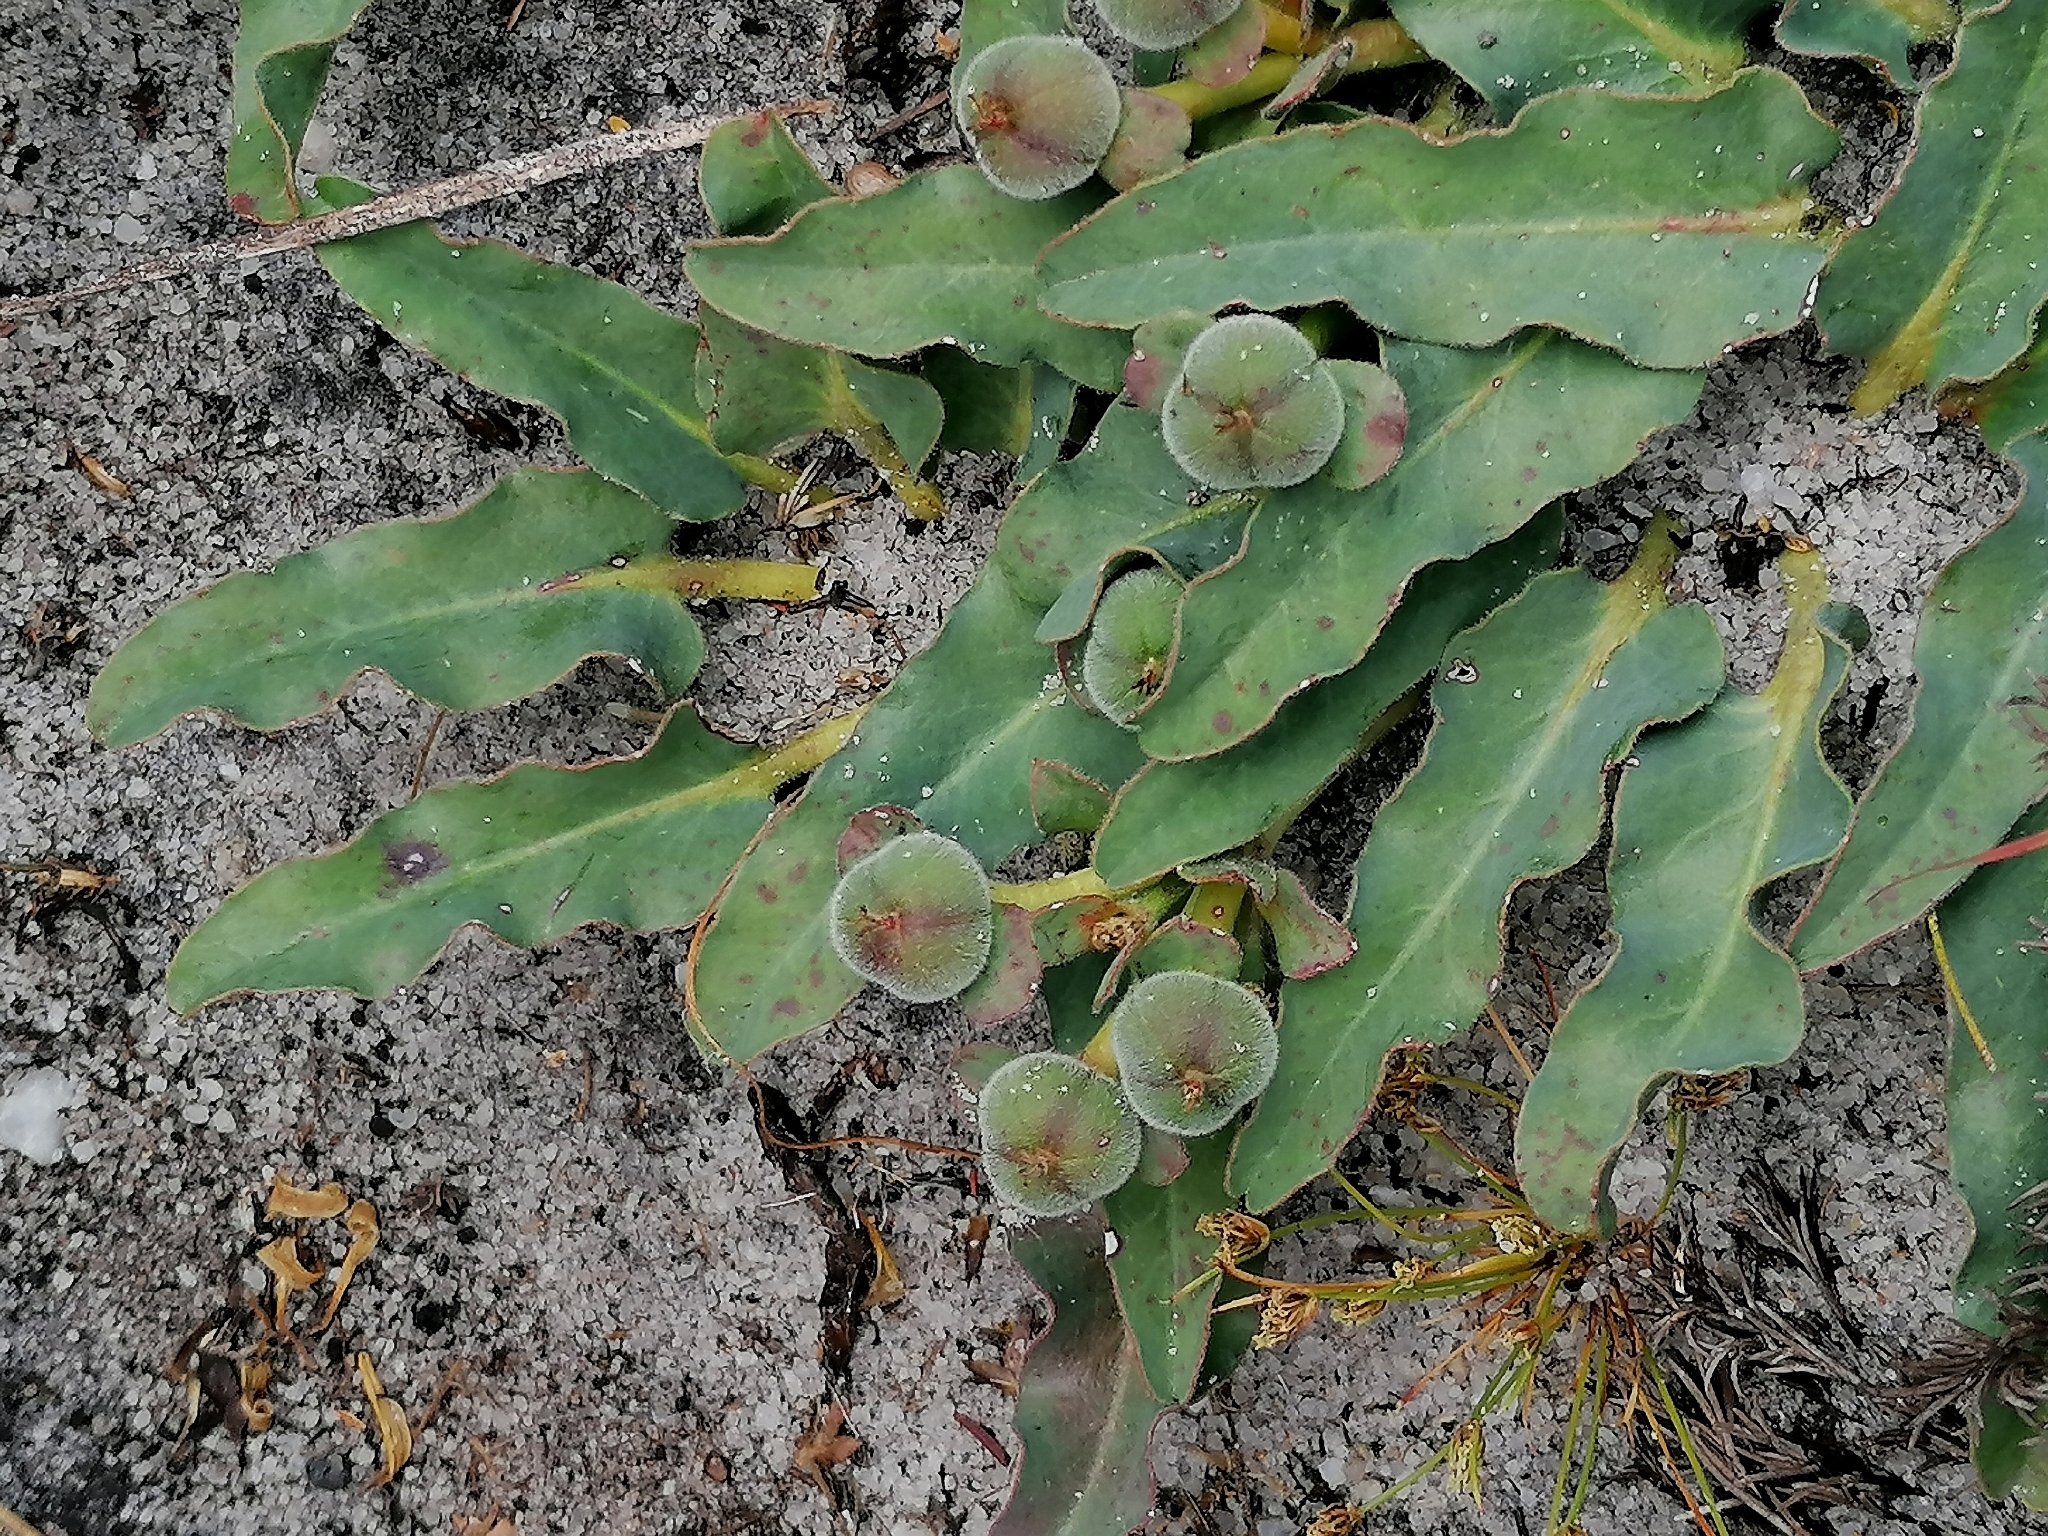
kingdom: Plantae
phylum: Tracheophyta
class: Magnoliopsida
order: Malpighiales
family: Euphorbiaceae
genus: Euphorbia
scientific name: Euphorbia tuberosa
